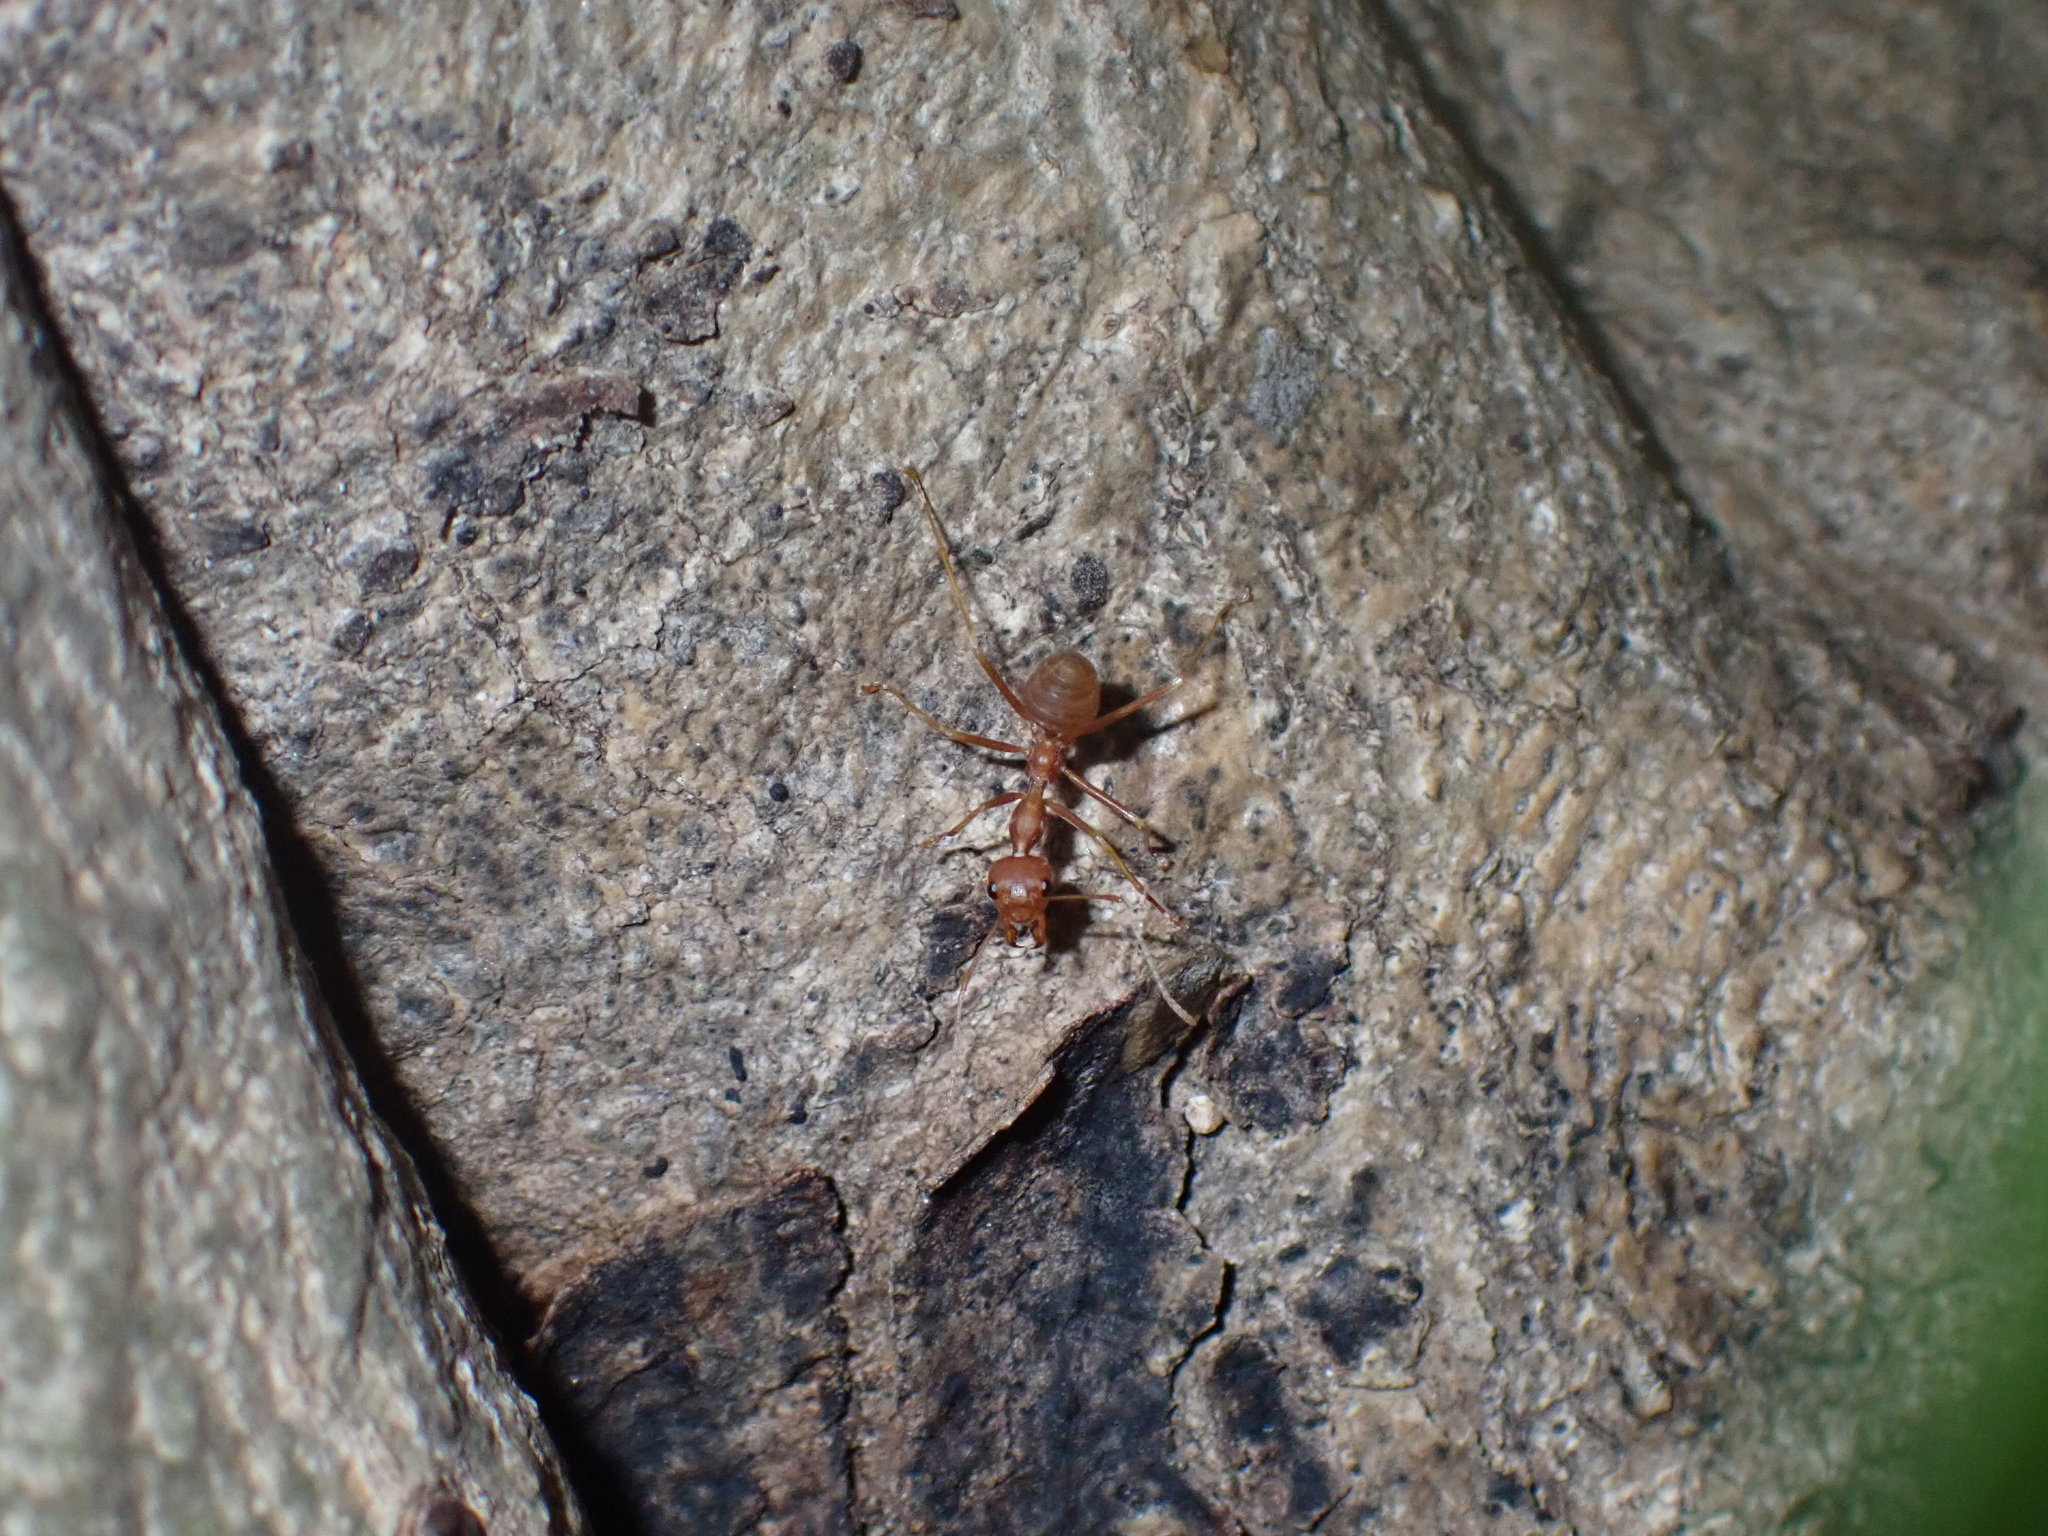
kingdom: Animalia
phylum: Arthropoda
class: Insecta
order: Hymenoptera
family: Formicidae
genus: Oecophylla
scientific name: Oecophylla smaragdina
